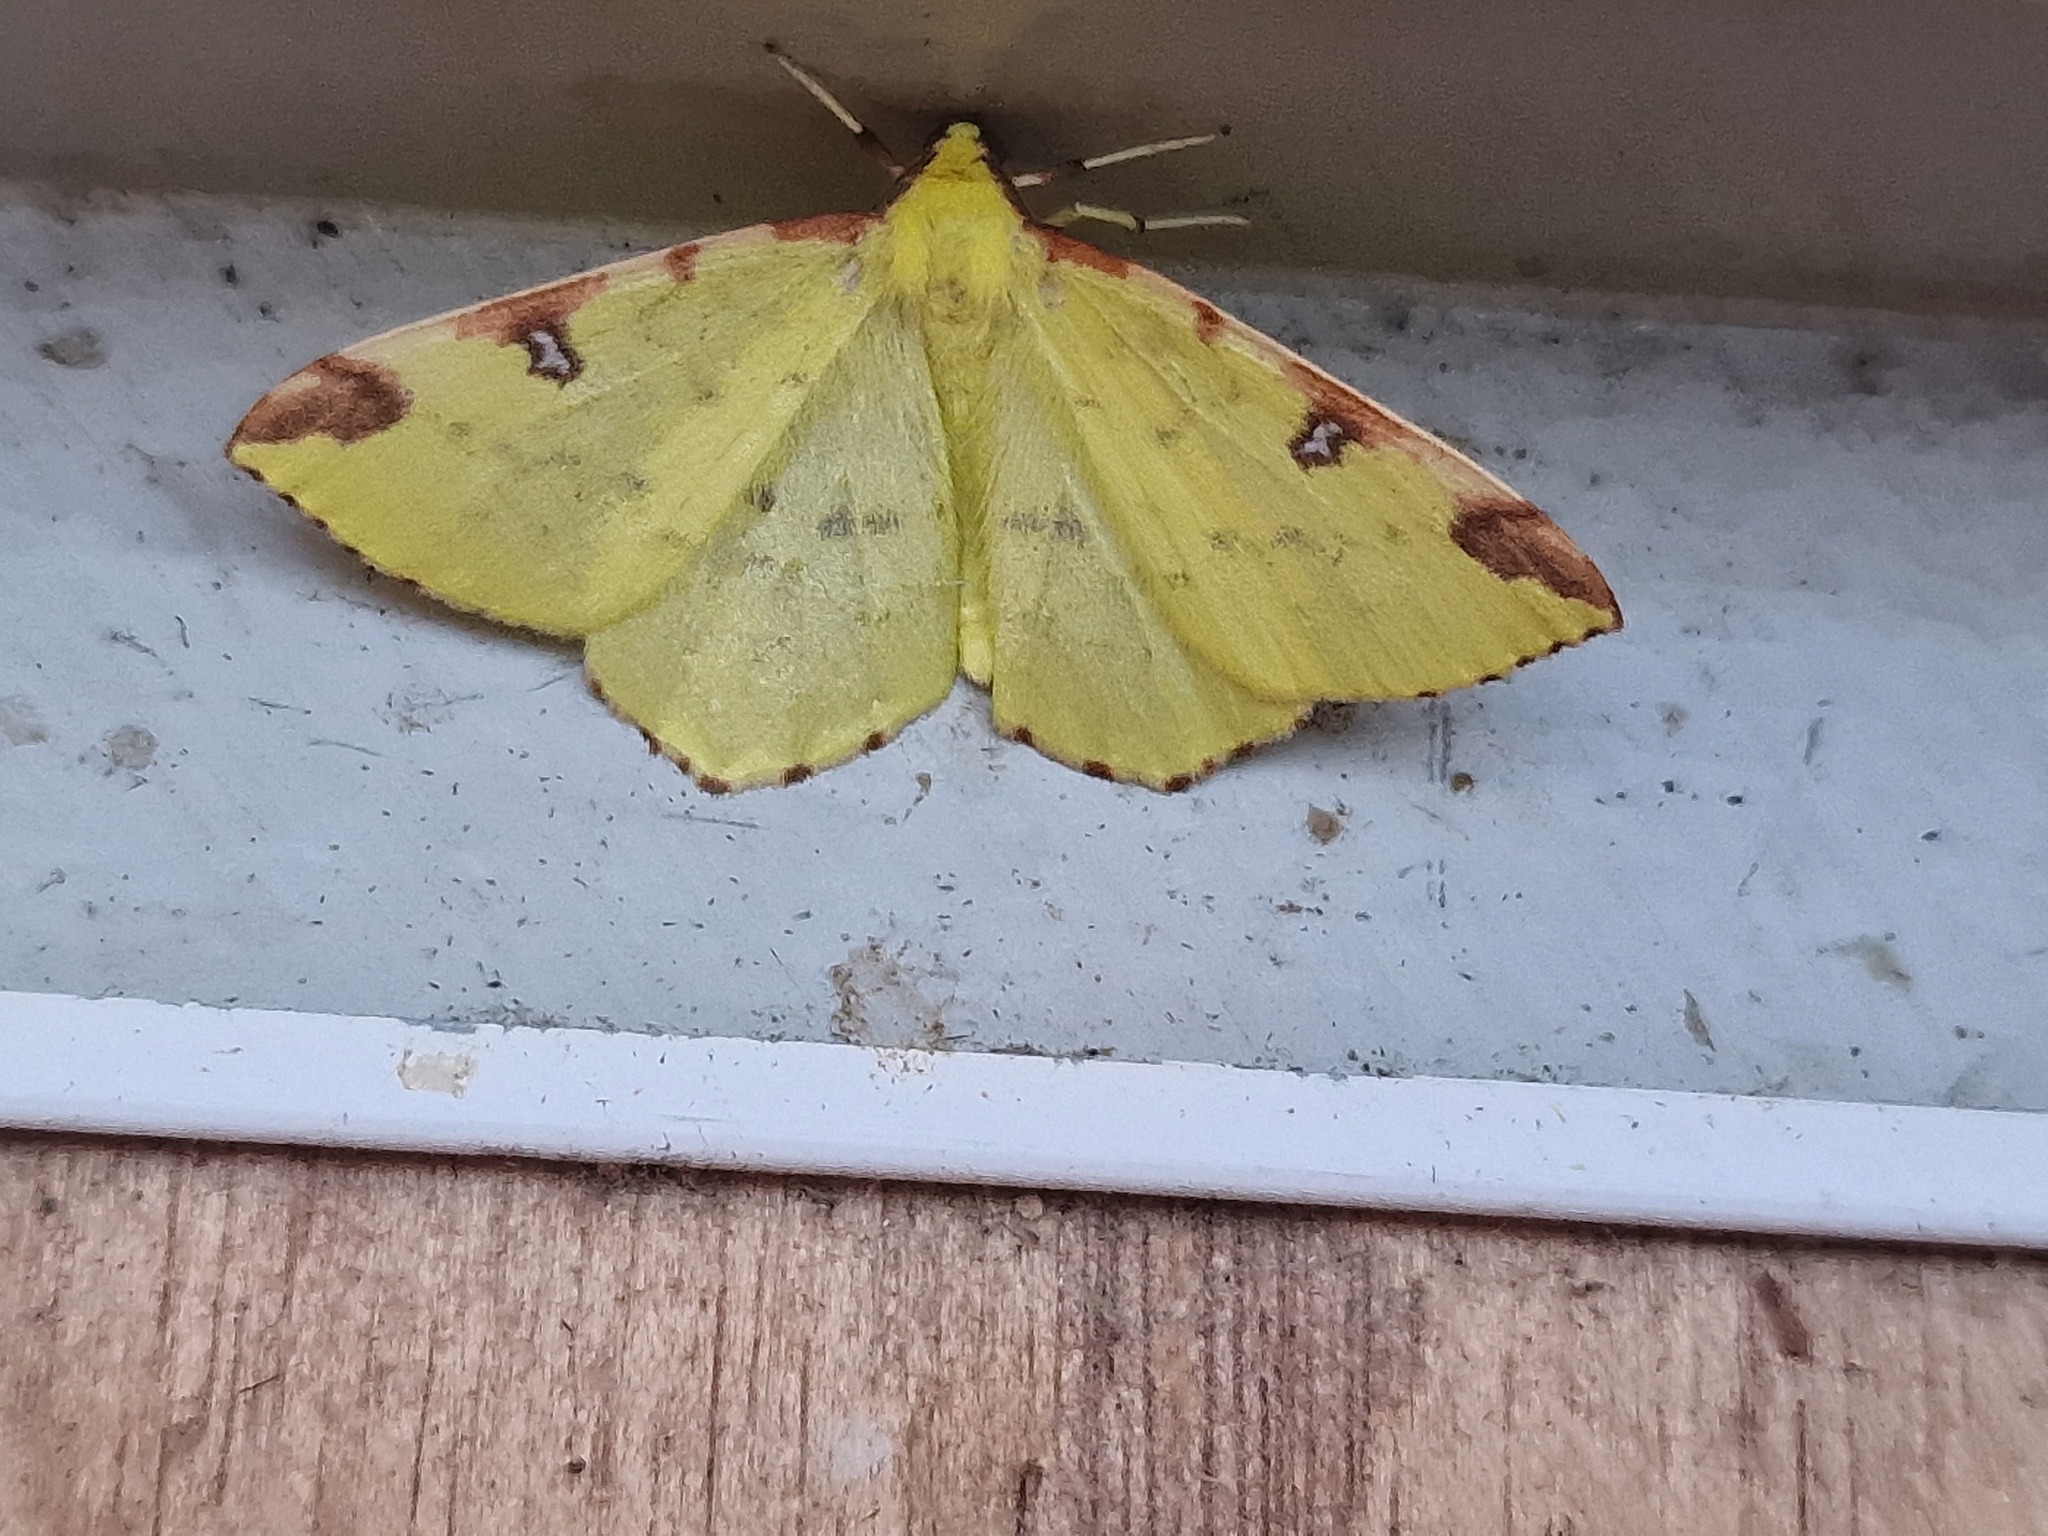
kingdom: Animalia
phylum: Arthropoda
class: Insecta
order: Lepidoptera
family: Geometridae
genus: Opisthograptis
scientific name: Opisthograptis luteolata
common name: Brimstone moth
